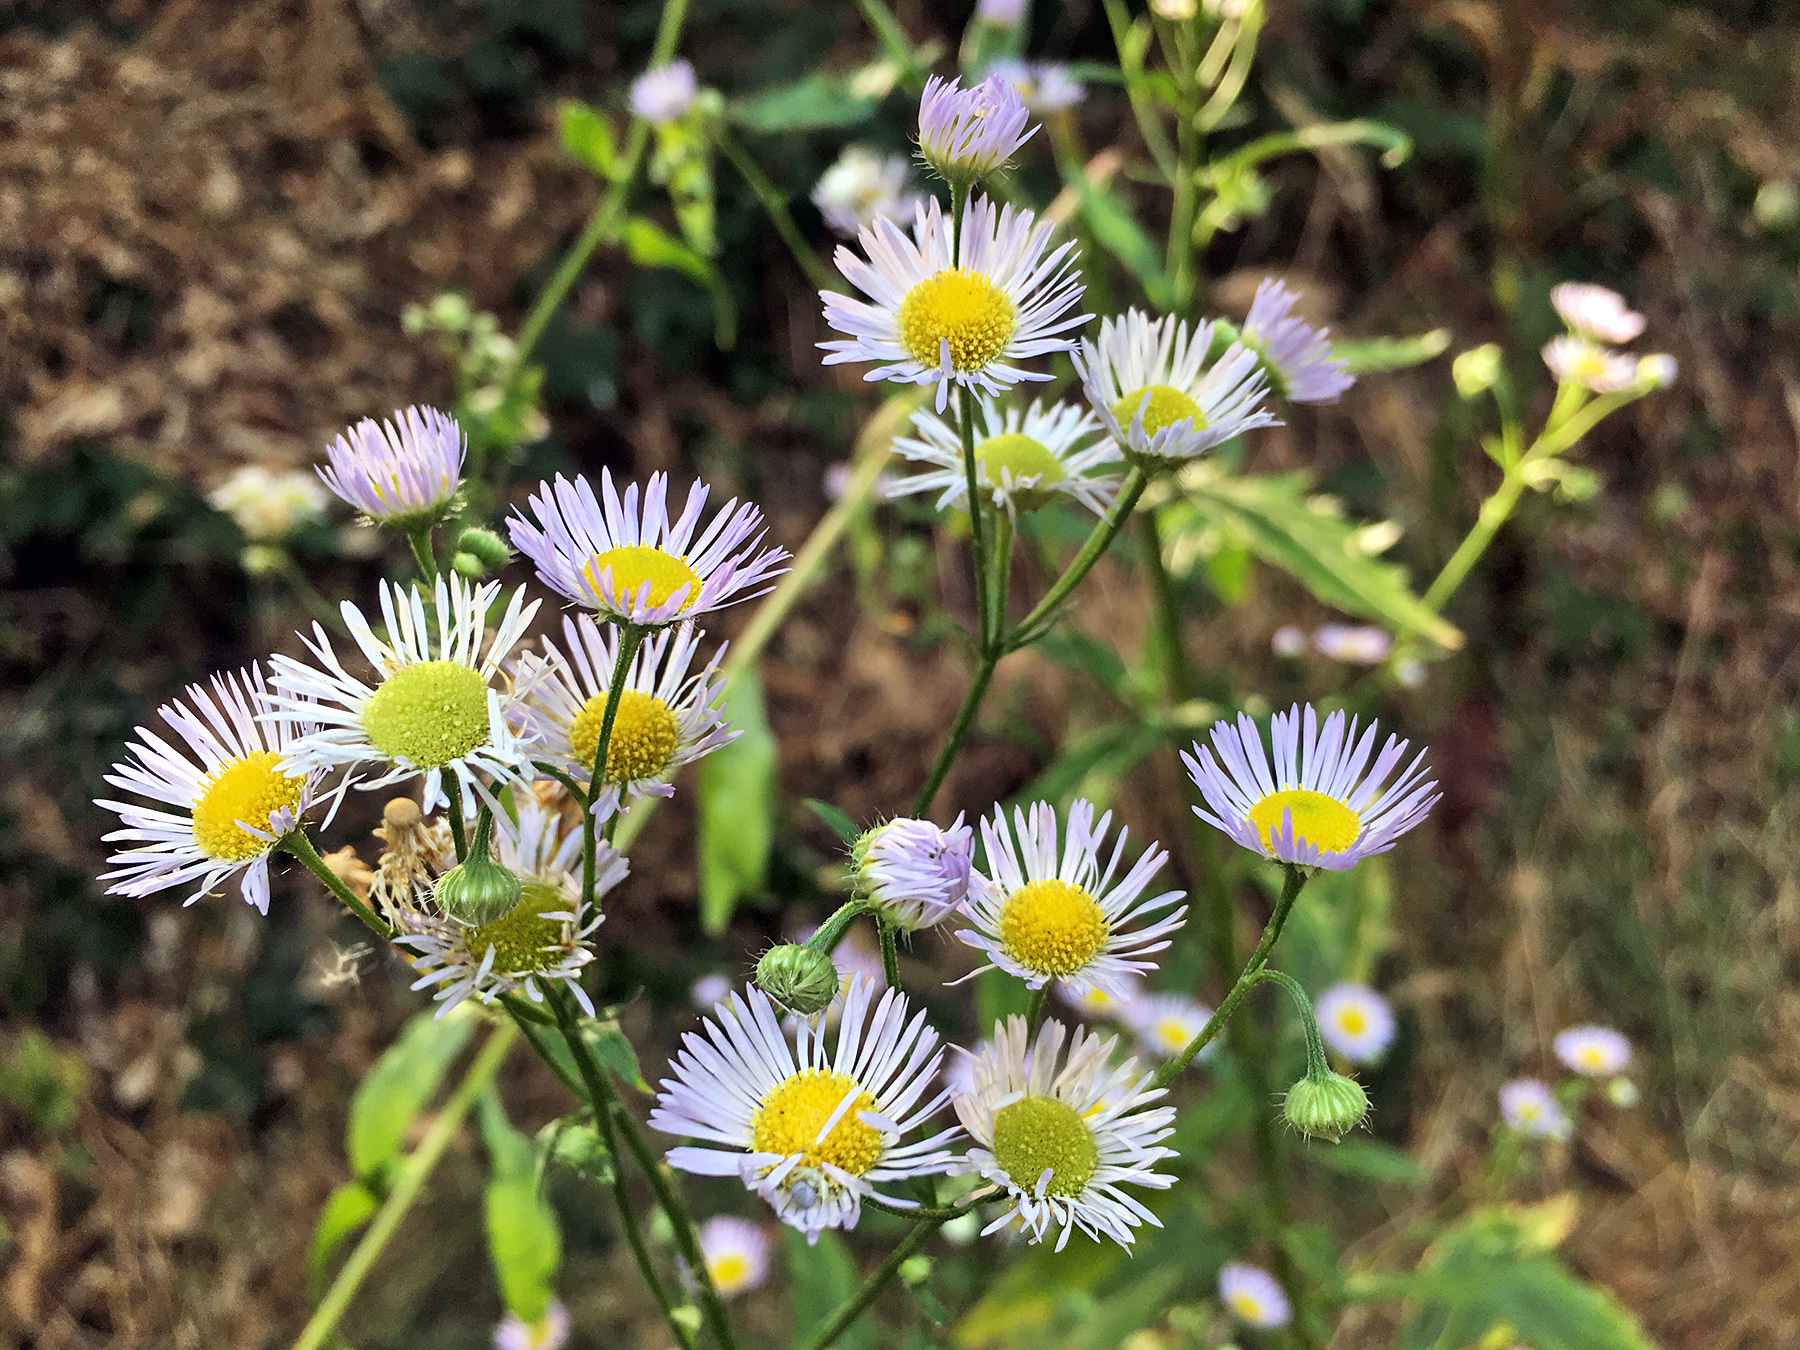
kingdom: Plantae
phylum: Tracheophyta
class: Magnoliopsida
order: Asterales
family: Asteraceae
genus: Erigeron
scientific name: Erigeron annuus
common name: Tall fleabane
